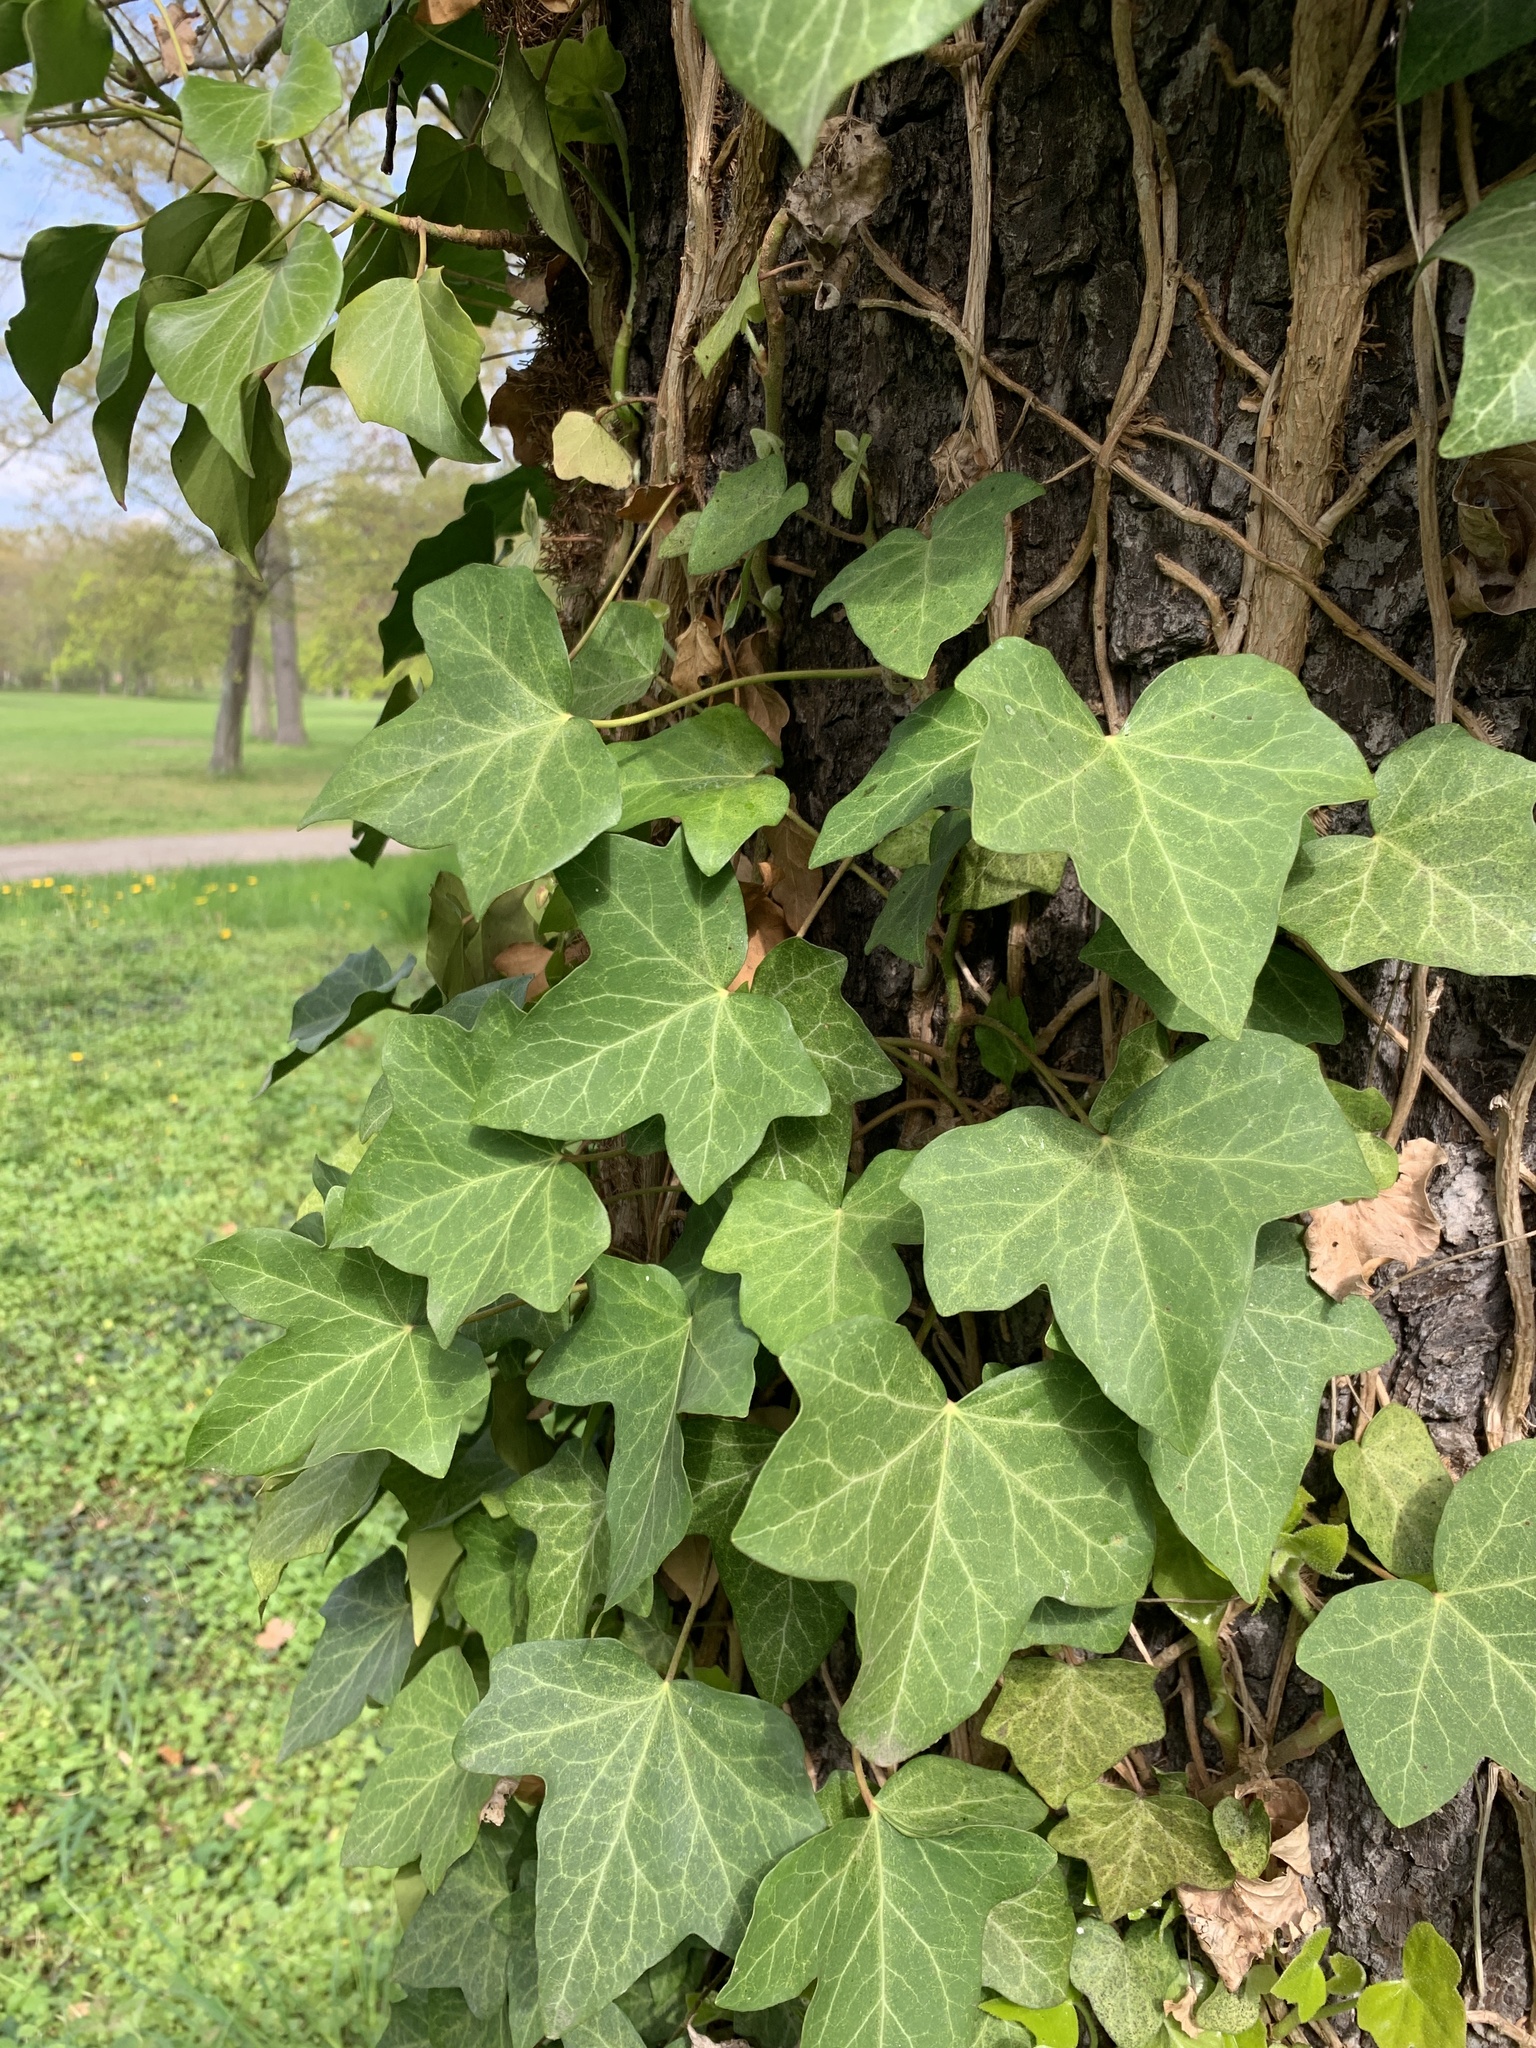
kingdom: Plantae
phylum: Tracheophyta
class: Magnoliopsida
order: Apiales
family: Araliaceae
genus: Hedera
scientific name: Hedera helix
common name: Ivy
